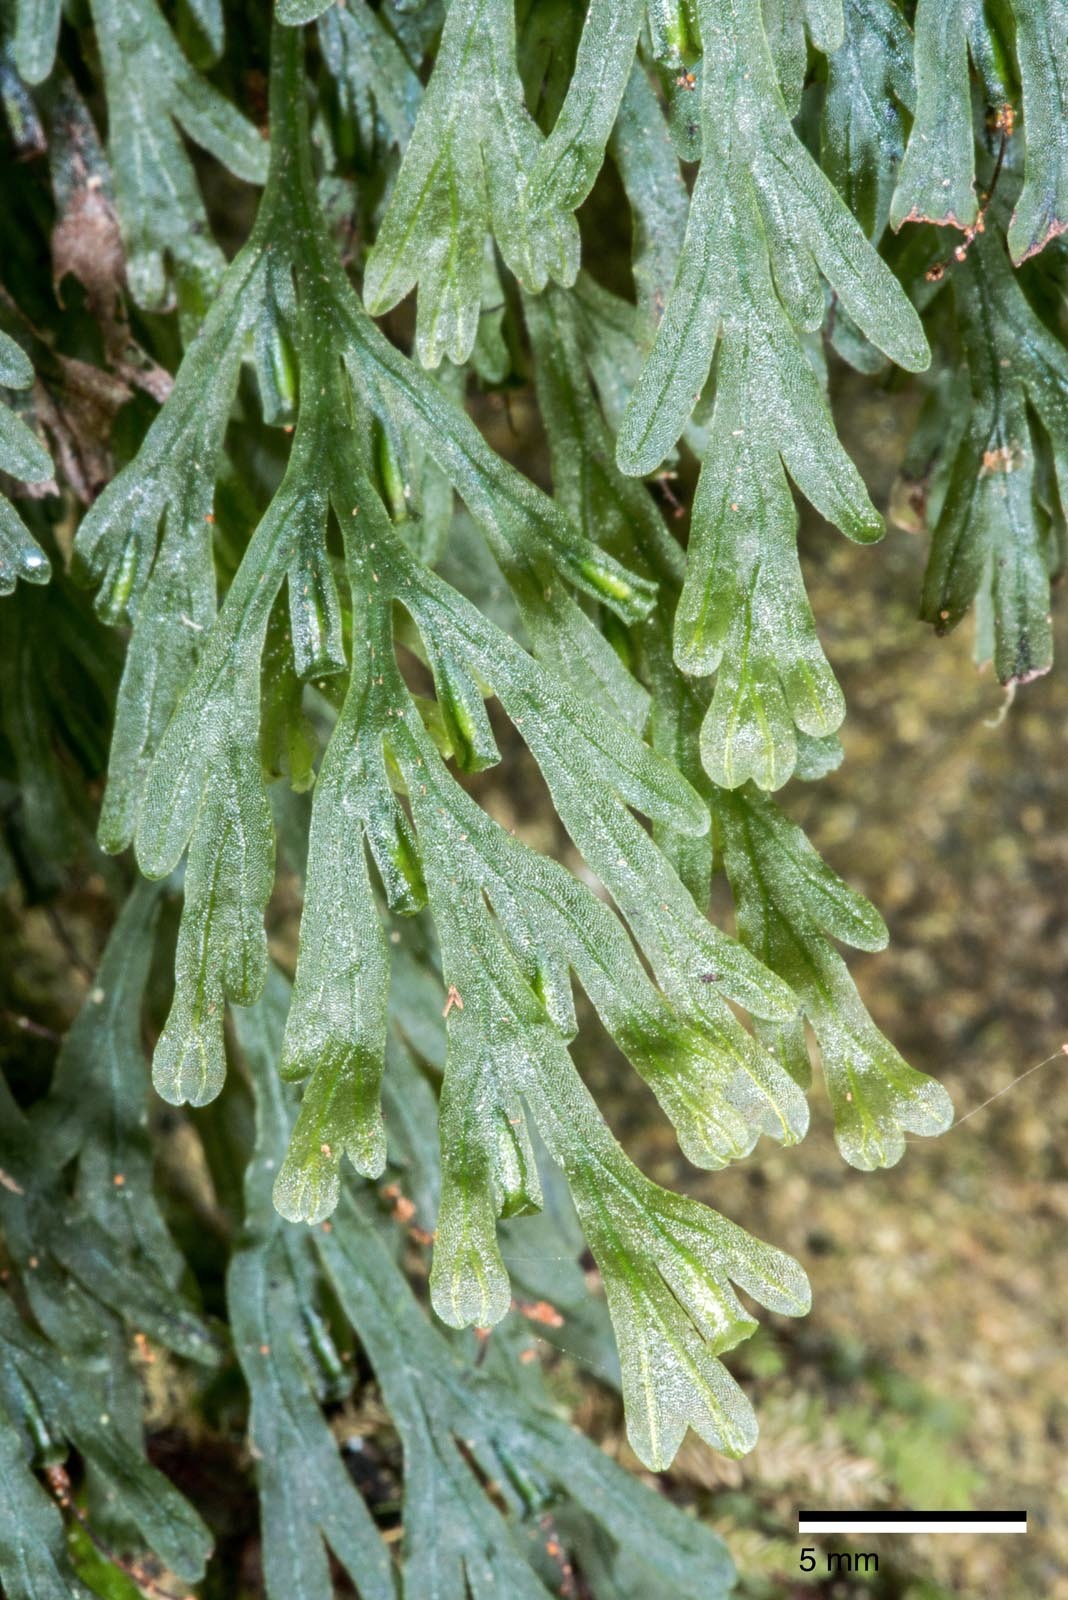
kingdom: Plantae
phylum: Tracheophyta
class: Polypodiopsida
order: Hymenophyllales
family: Hymenophyllaceae
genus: Polyphlebium
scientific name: Polyphlebium endlicherianum
